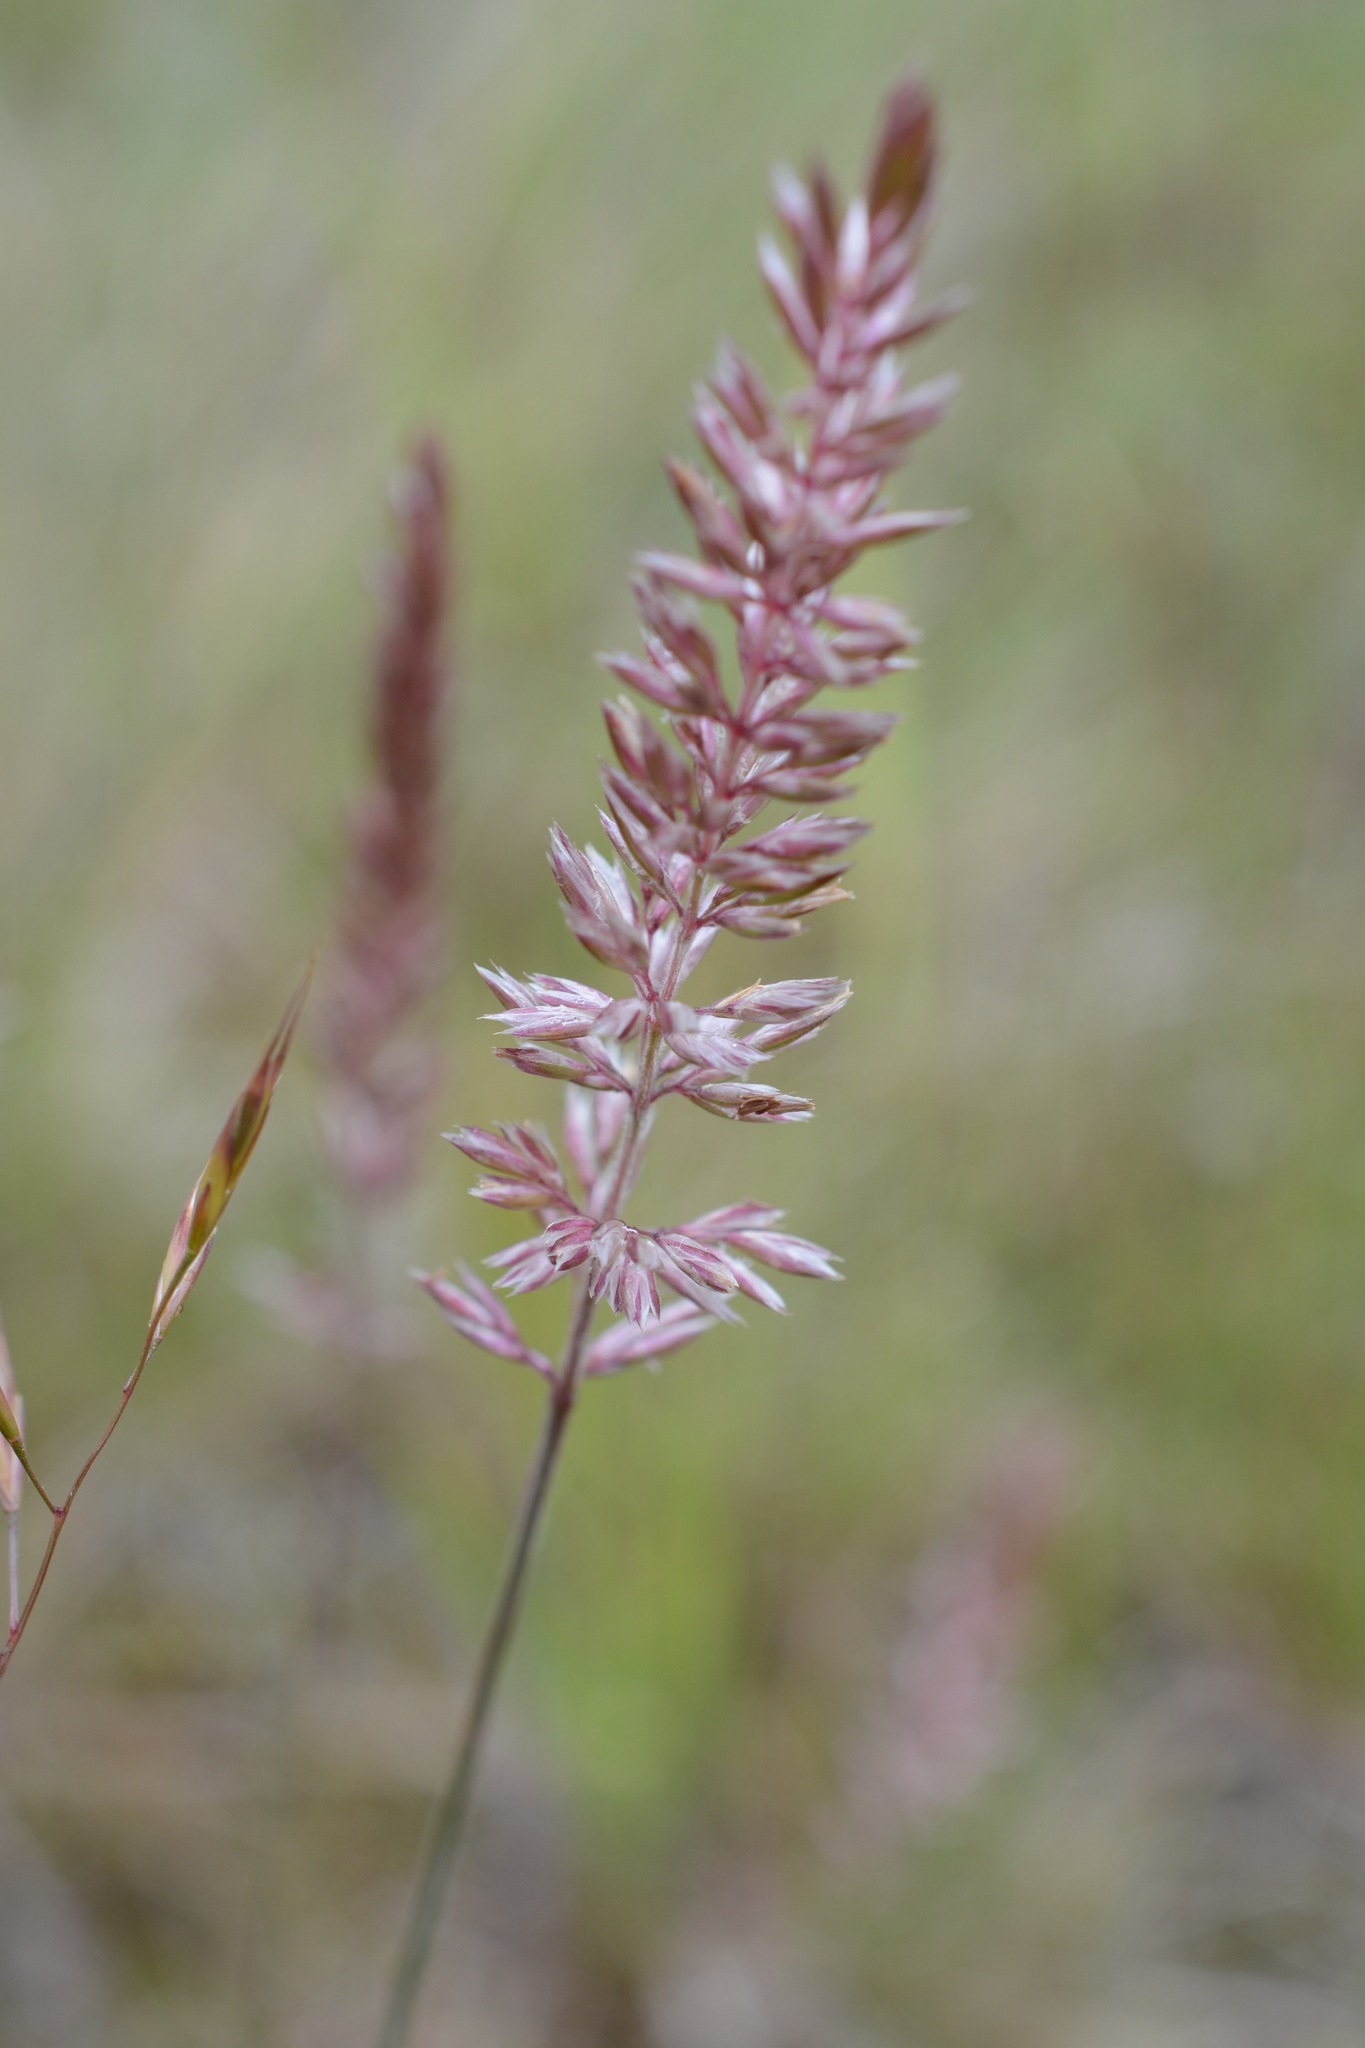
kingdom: Plantae
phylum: Tracheophyta
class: Liliopsida
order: Poales
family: Poaceae
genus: Koeleria
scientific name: Koeleria macrantha
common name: Crested hair-grass
